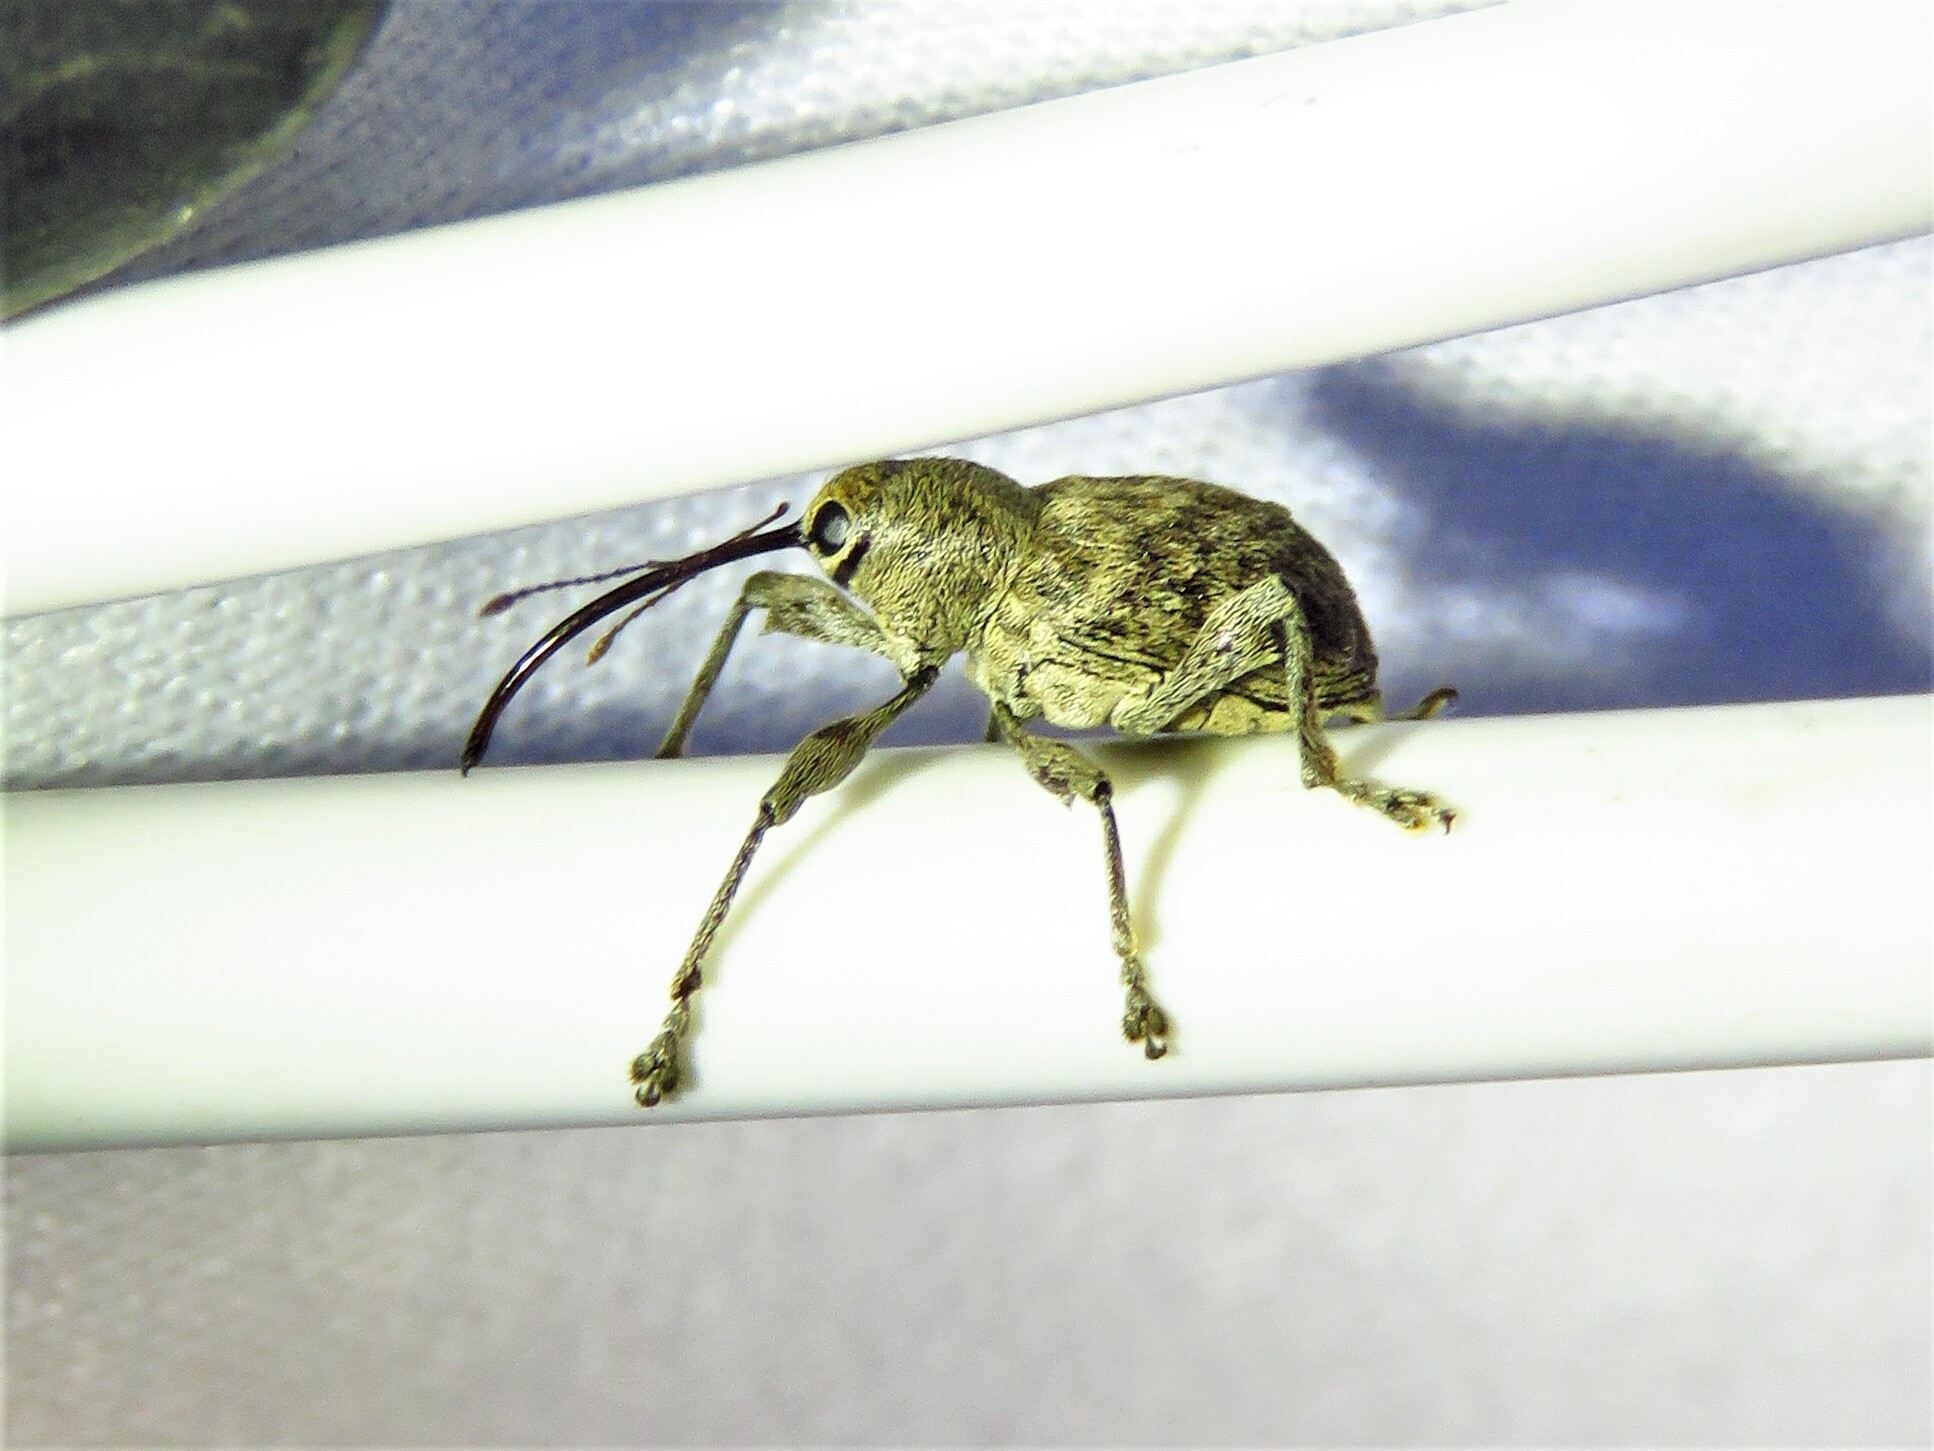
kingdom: Animalia
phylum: Arthropoda
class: Insecta
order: Coleoptera
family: Curculionidae
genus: Curculio
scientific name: Curculio
